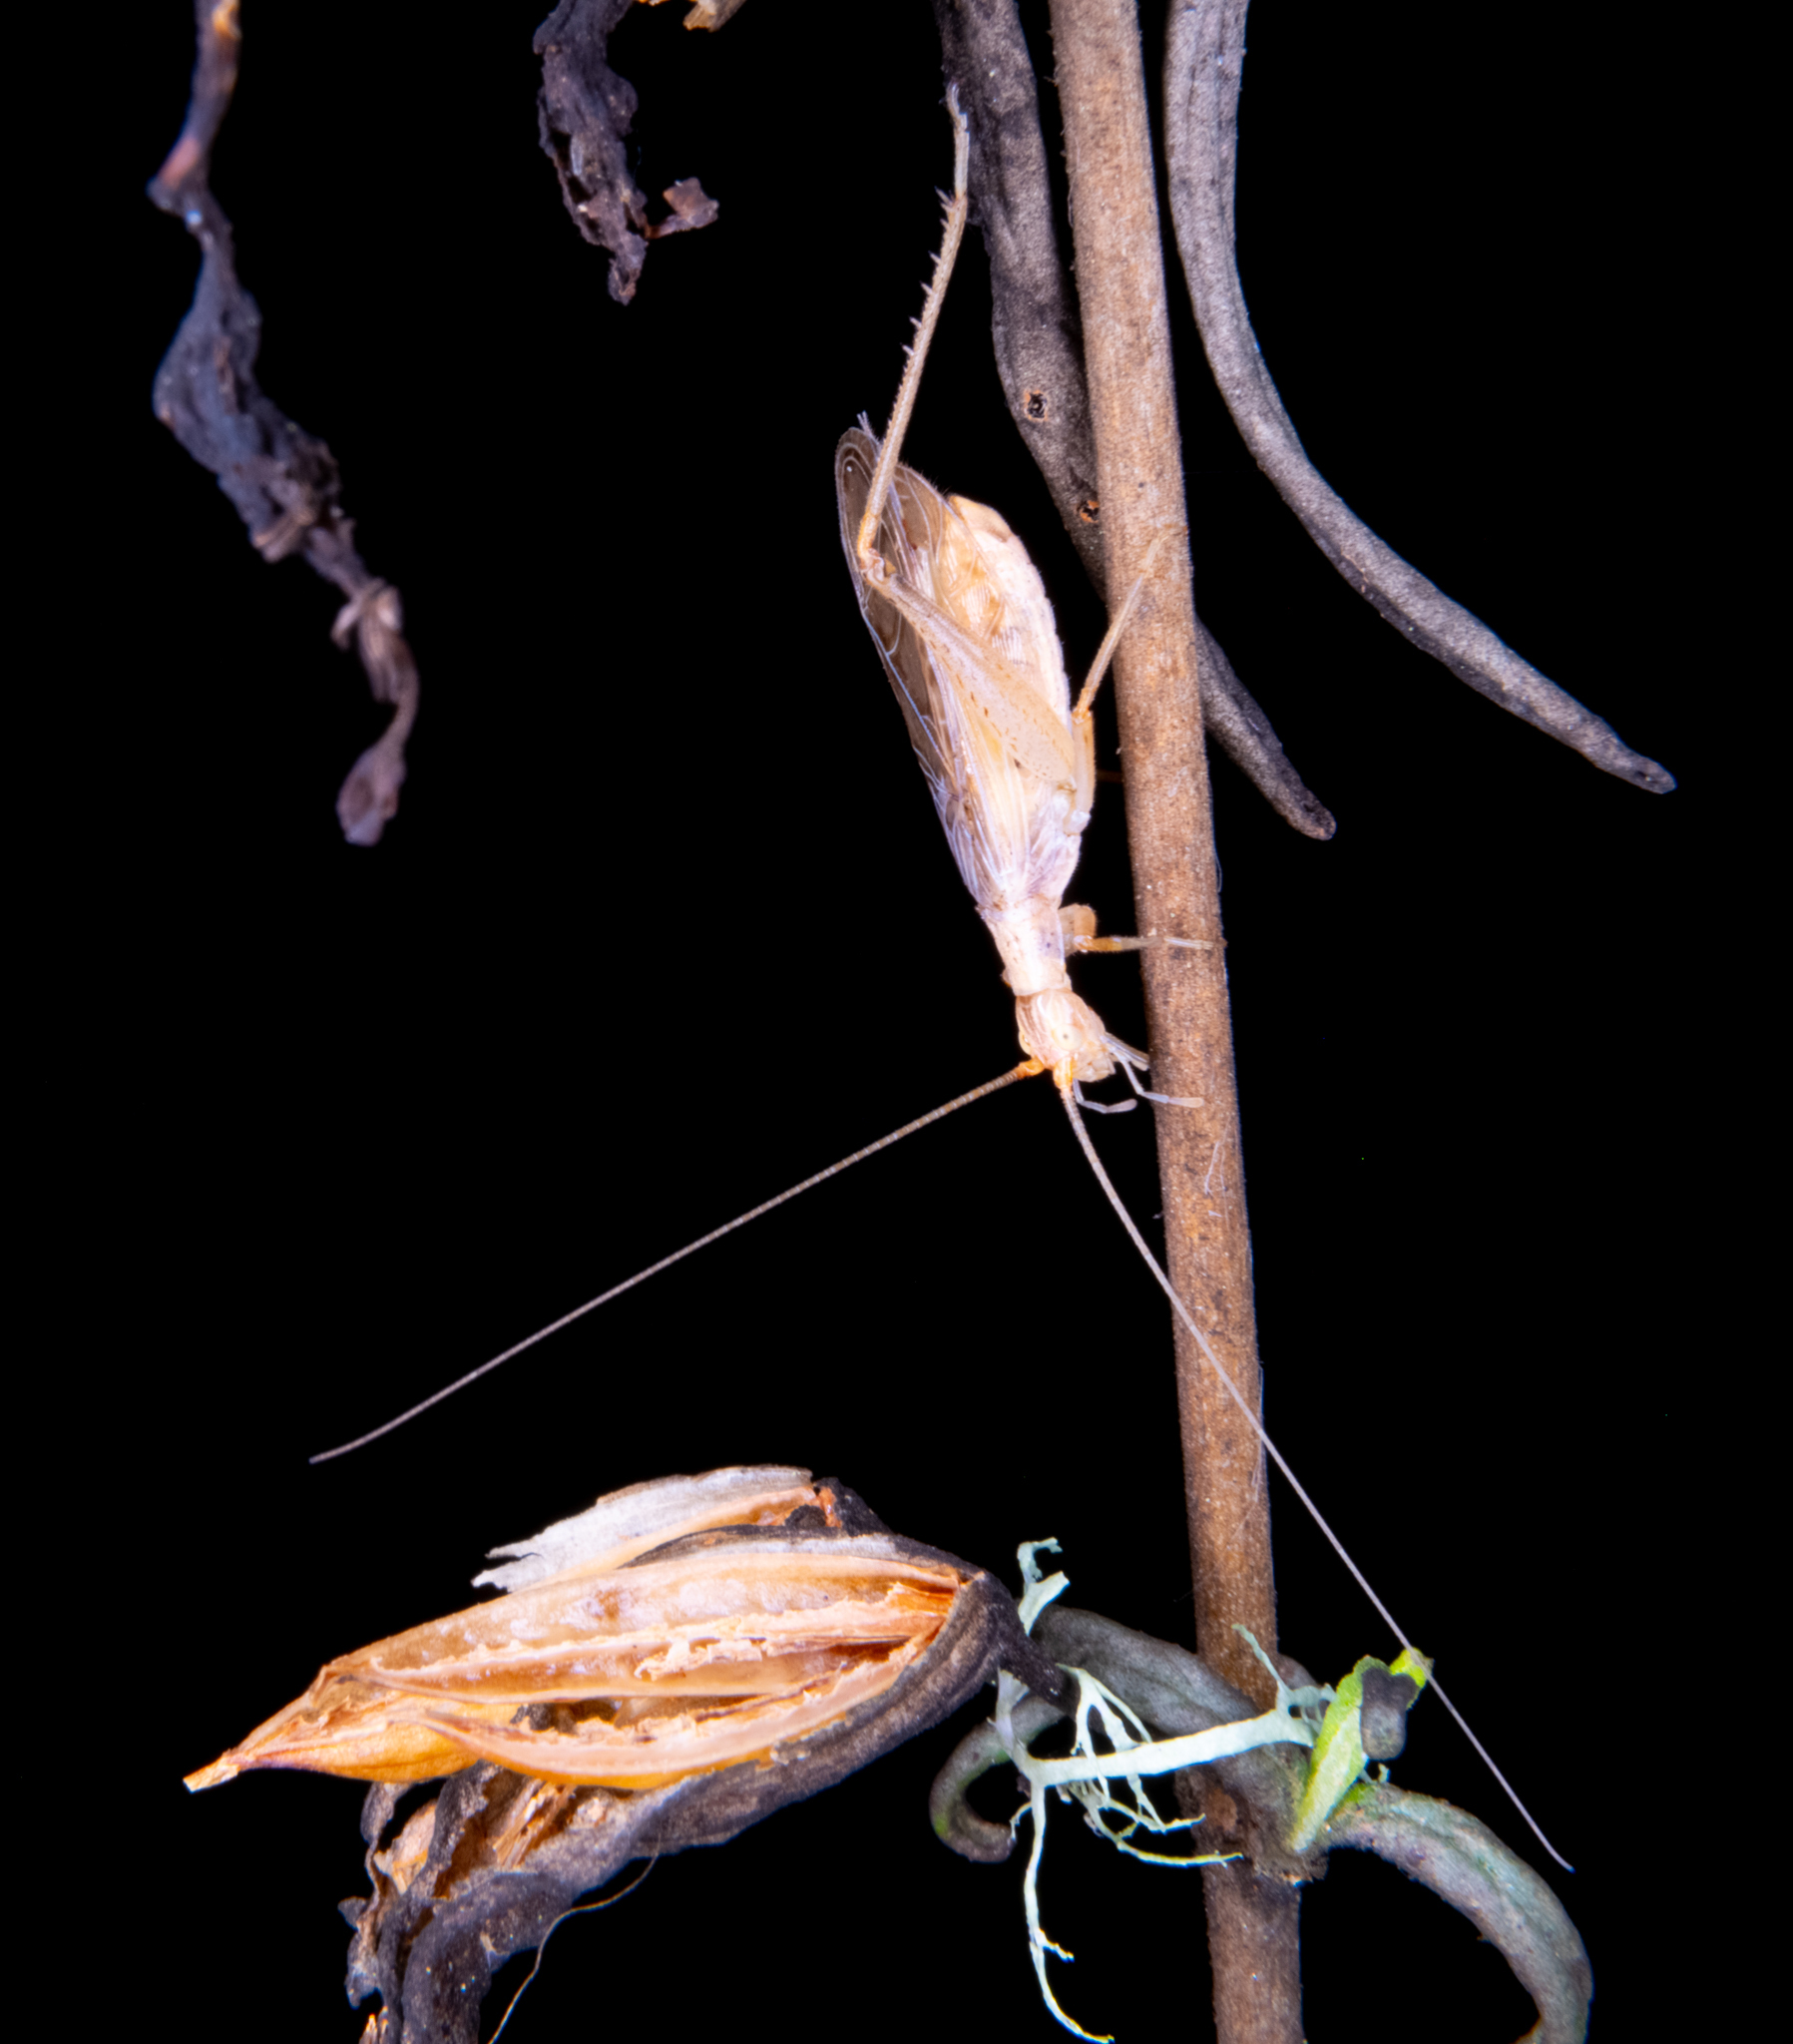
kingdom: Animalia
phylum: Arthropoda
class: Insecta
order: Orthoptera
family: Gryllidae
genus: Oecanthus
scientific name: Oecanthus californicus
